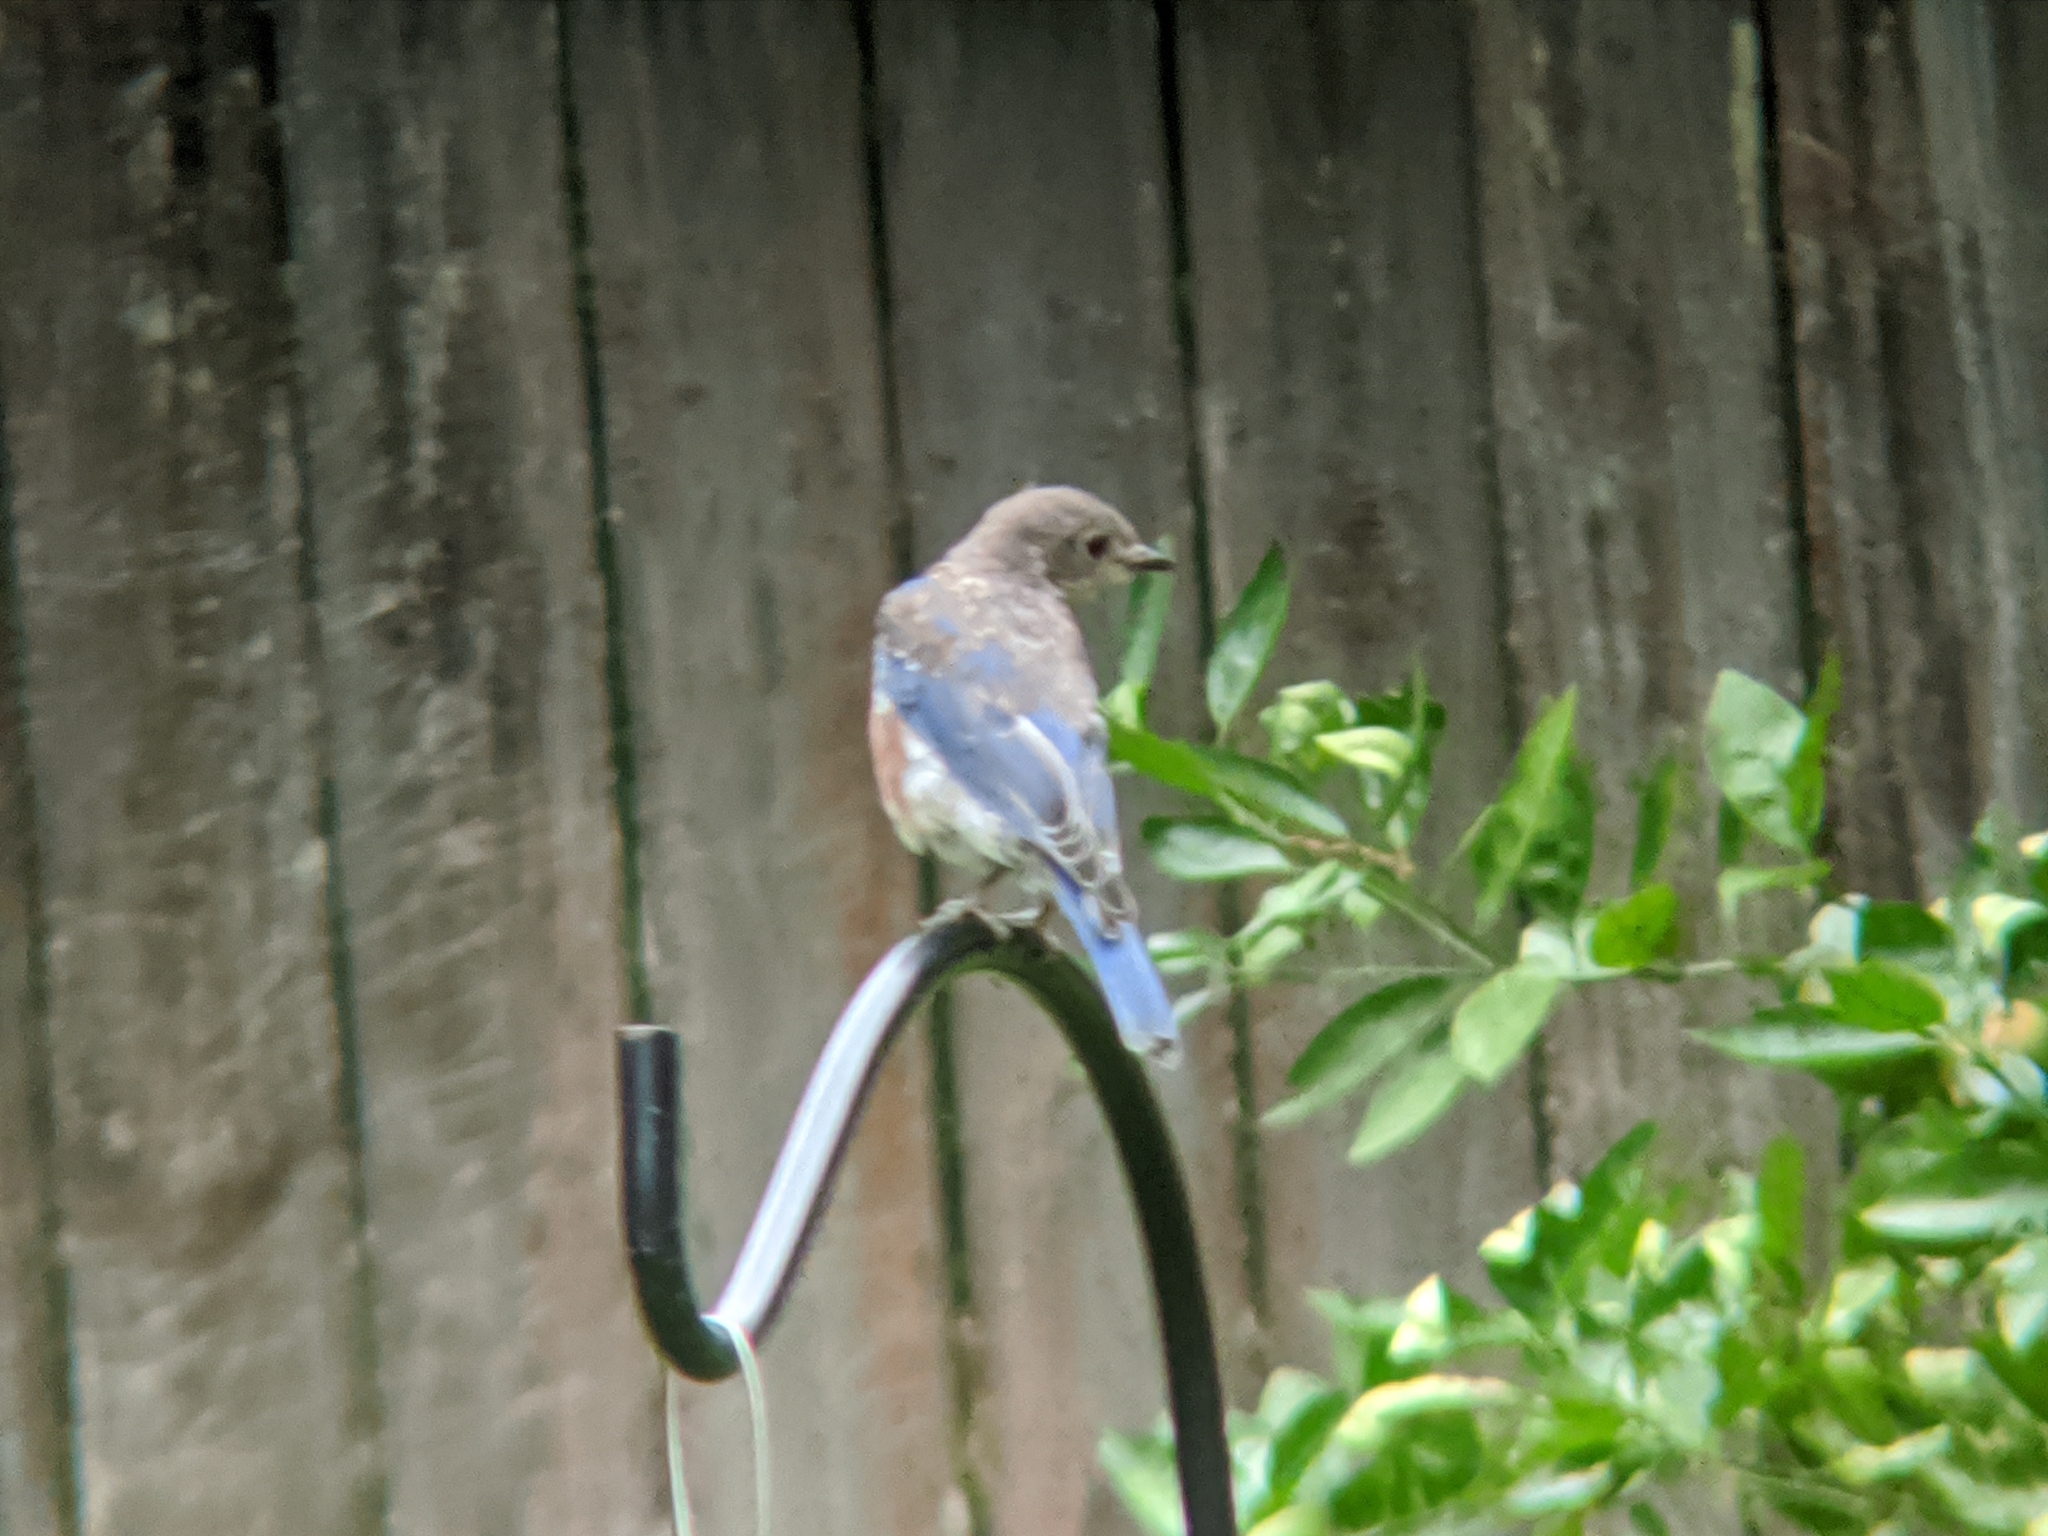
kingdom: Animalia
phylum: Chordata
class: Aves
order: Passeriformes
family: Turdidae
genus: Sialia
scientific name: Sialia sialis
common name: Eastern bluebird
